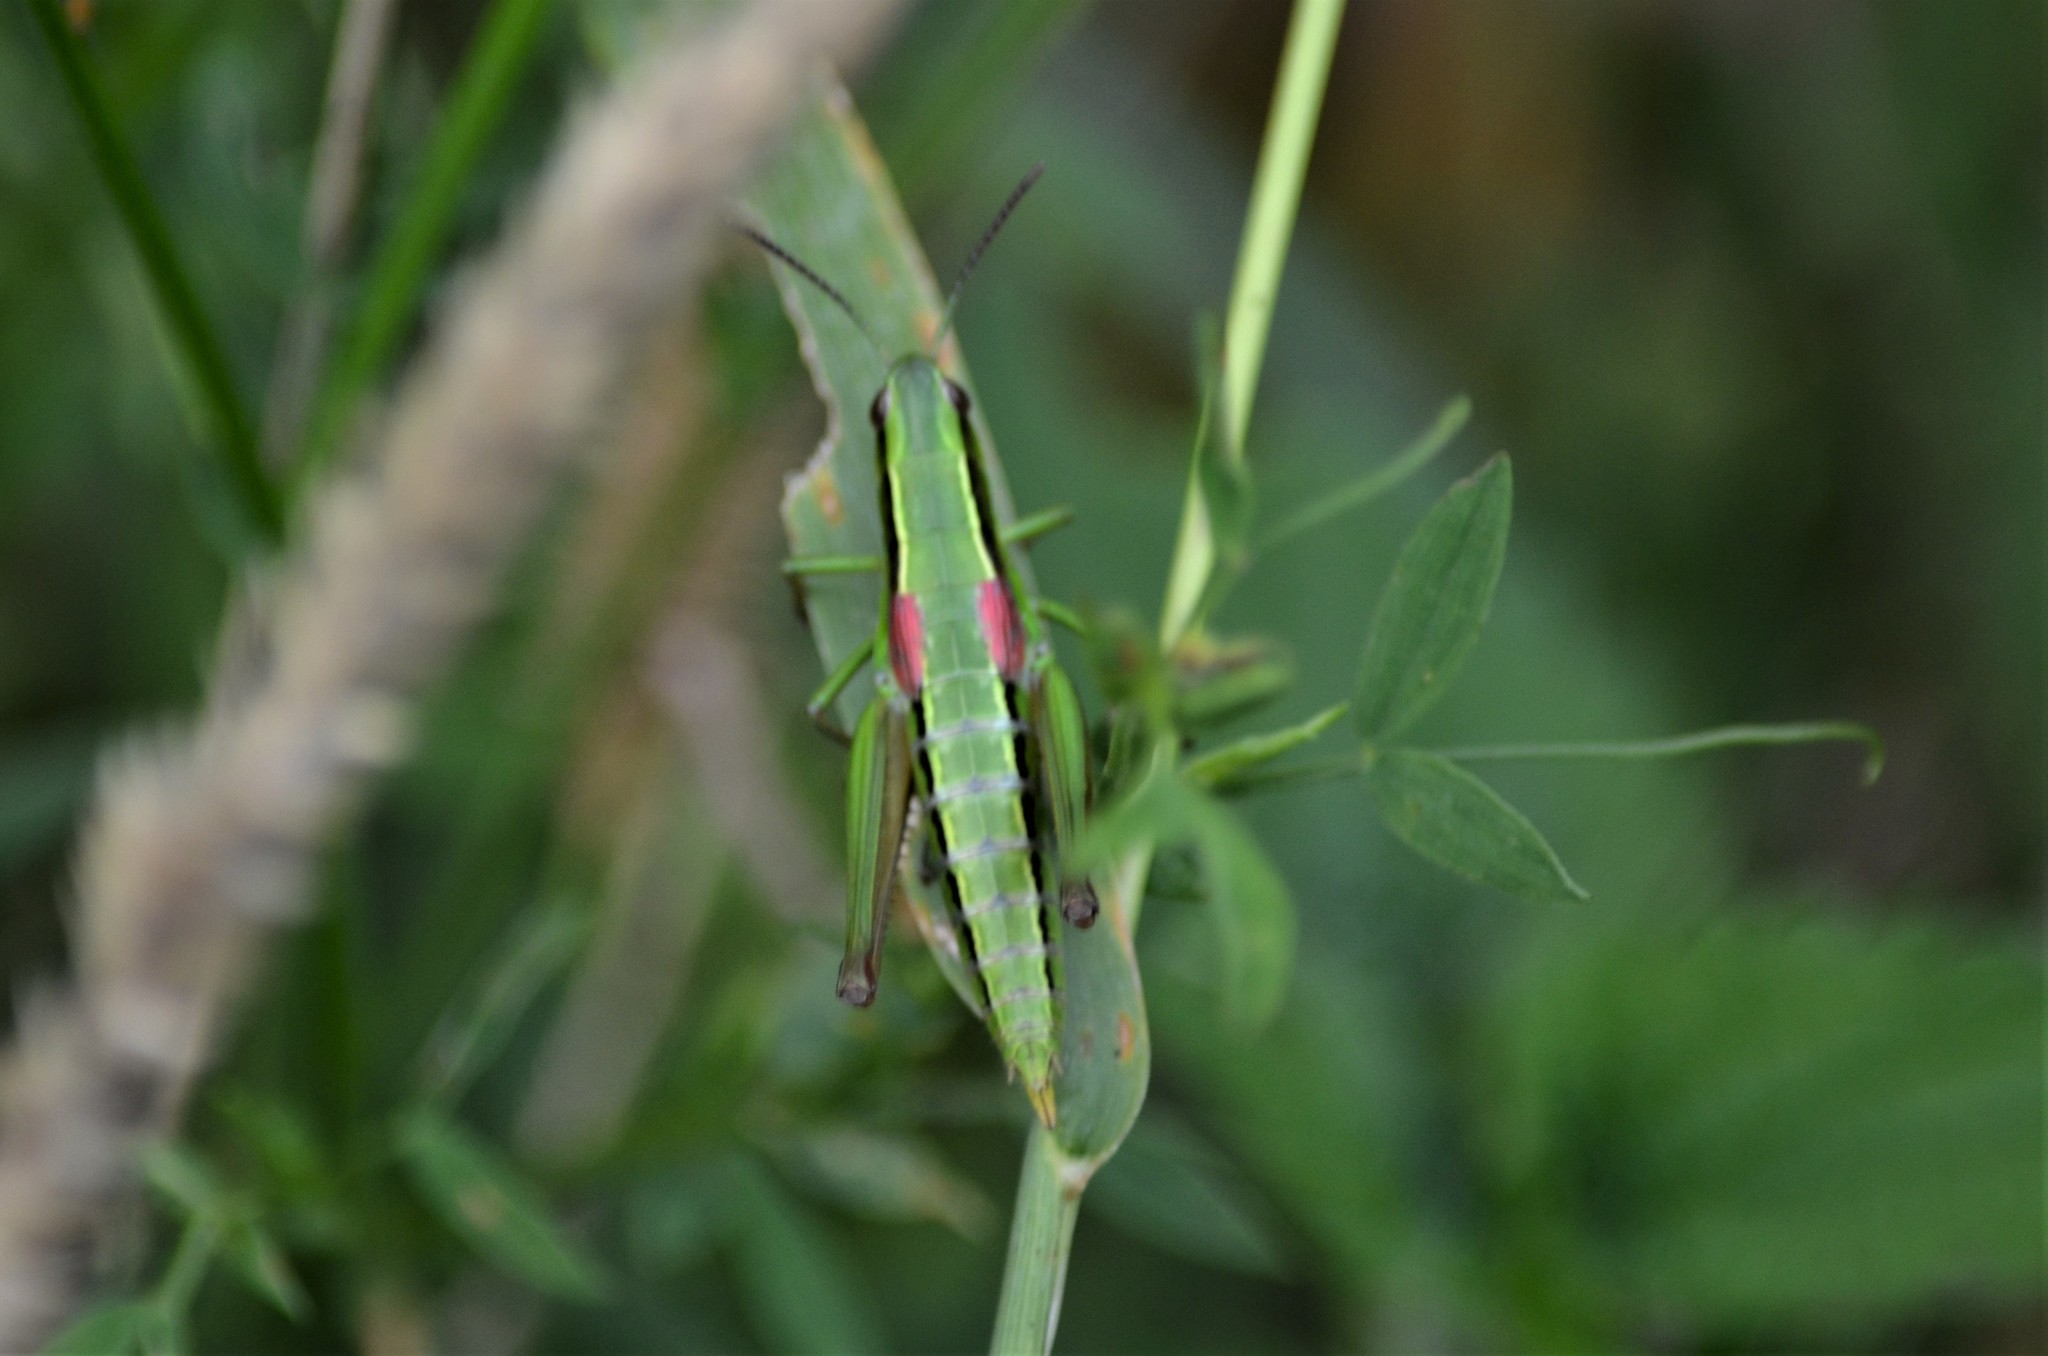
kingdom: Animalia
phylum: Arthropoda
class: Insecta
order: Orthoptera
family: Acrididae
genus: Euthystira
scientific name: Euthystira brachyptera
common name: Small gold grasshopper
